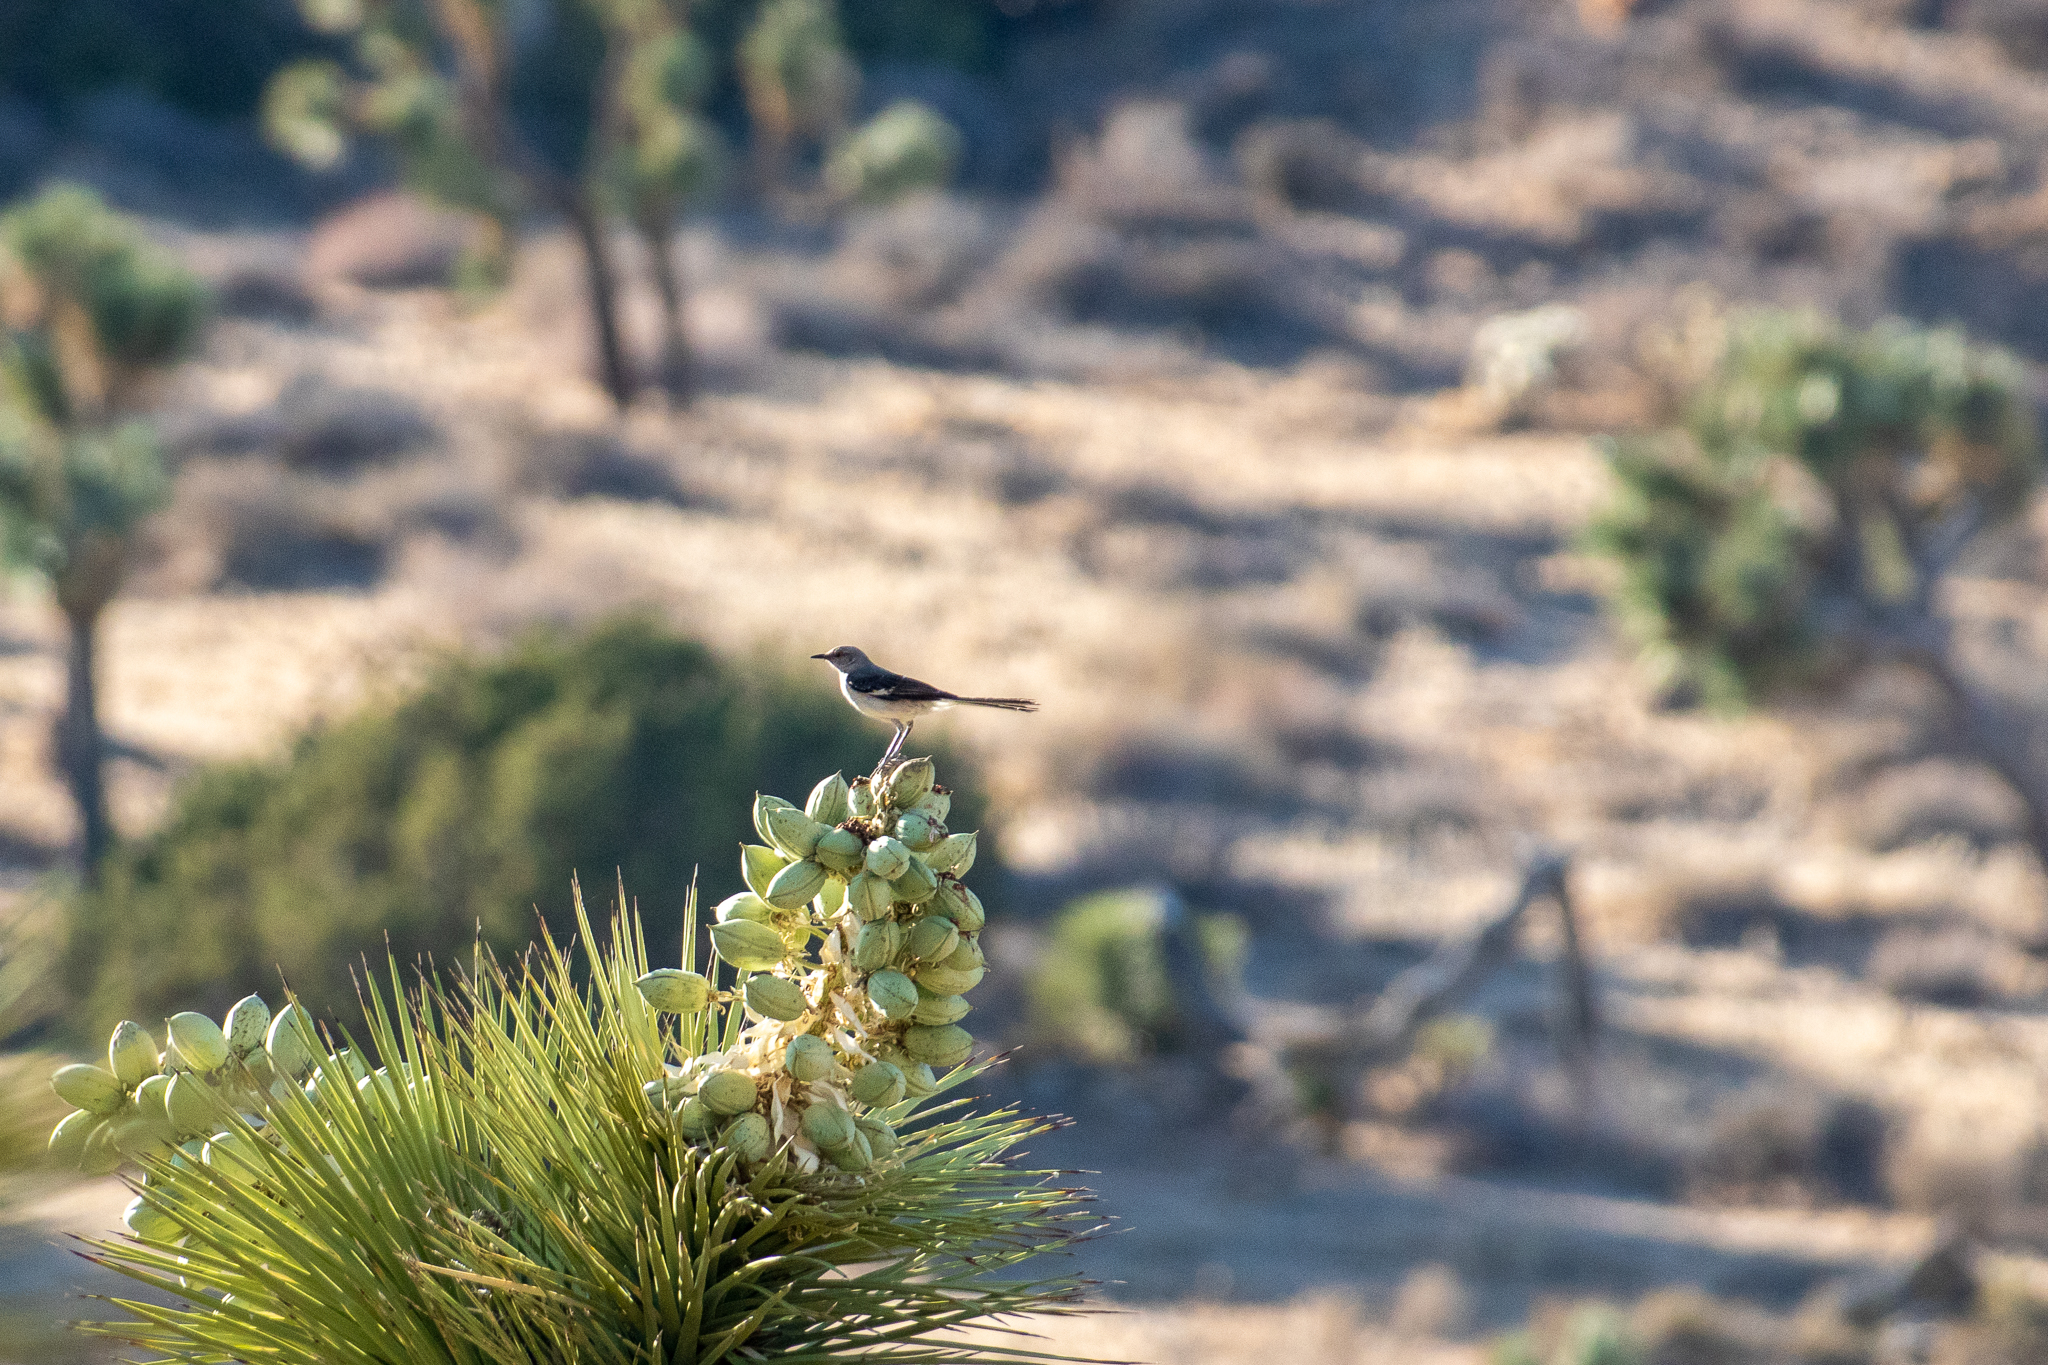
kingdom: Animalia
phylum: Chordata
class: Aves
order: Passeriformes
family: Mimidae
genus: Mimus
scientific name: Mimus polyglottos
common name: Northern mockingbird
